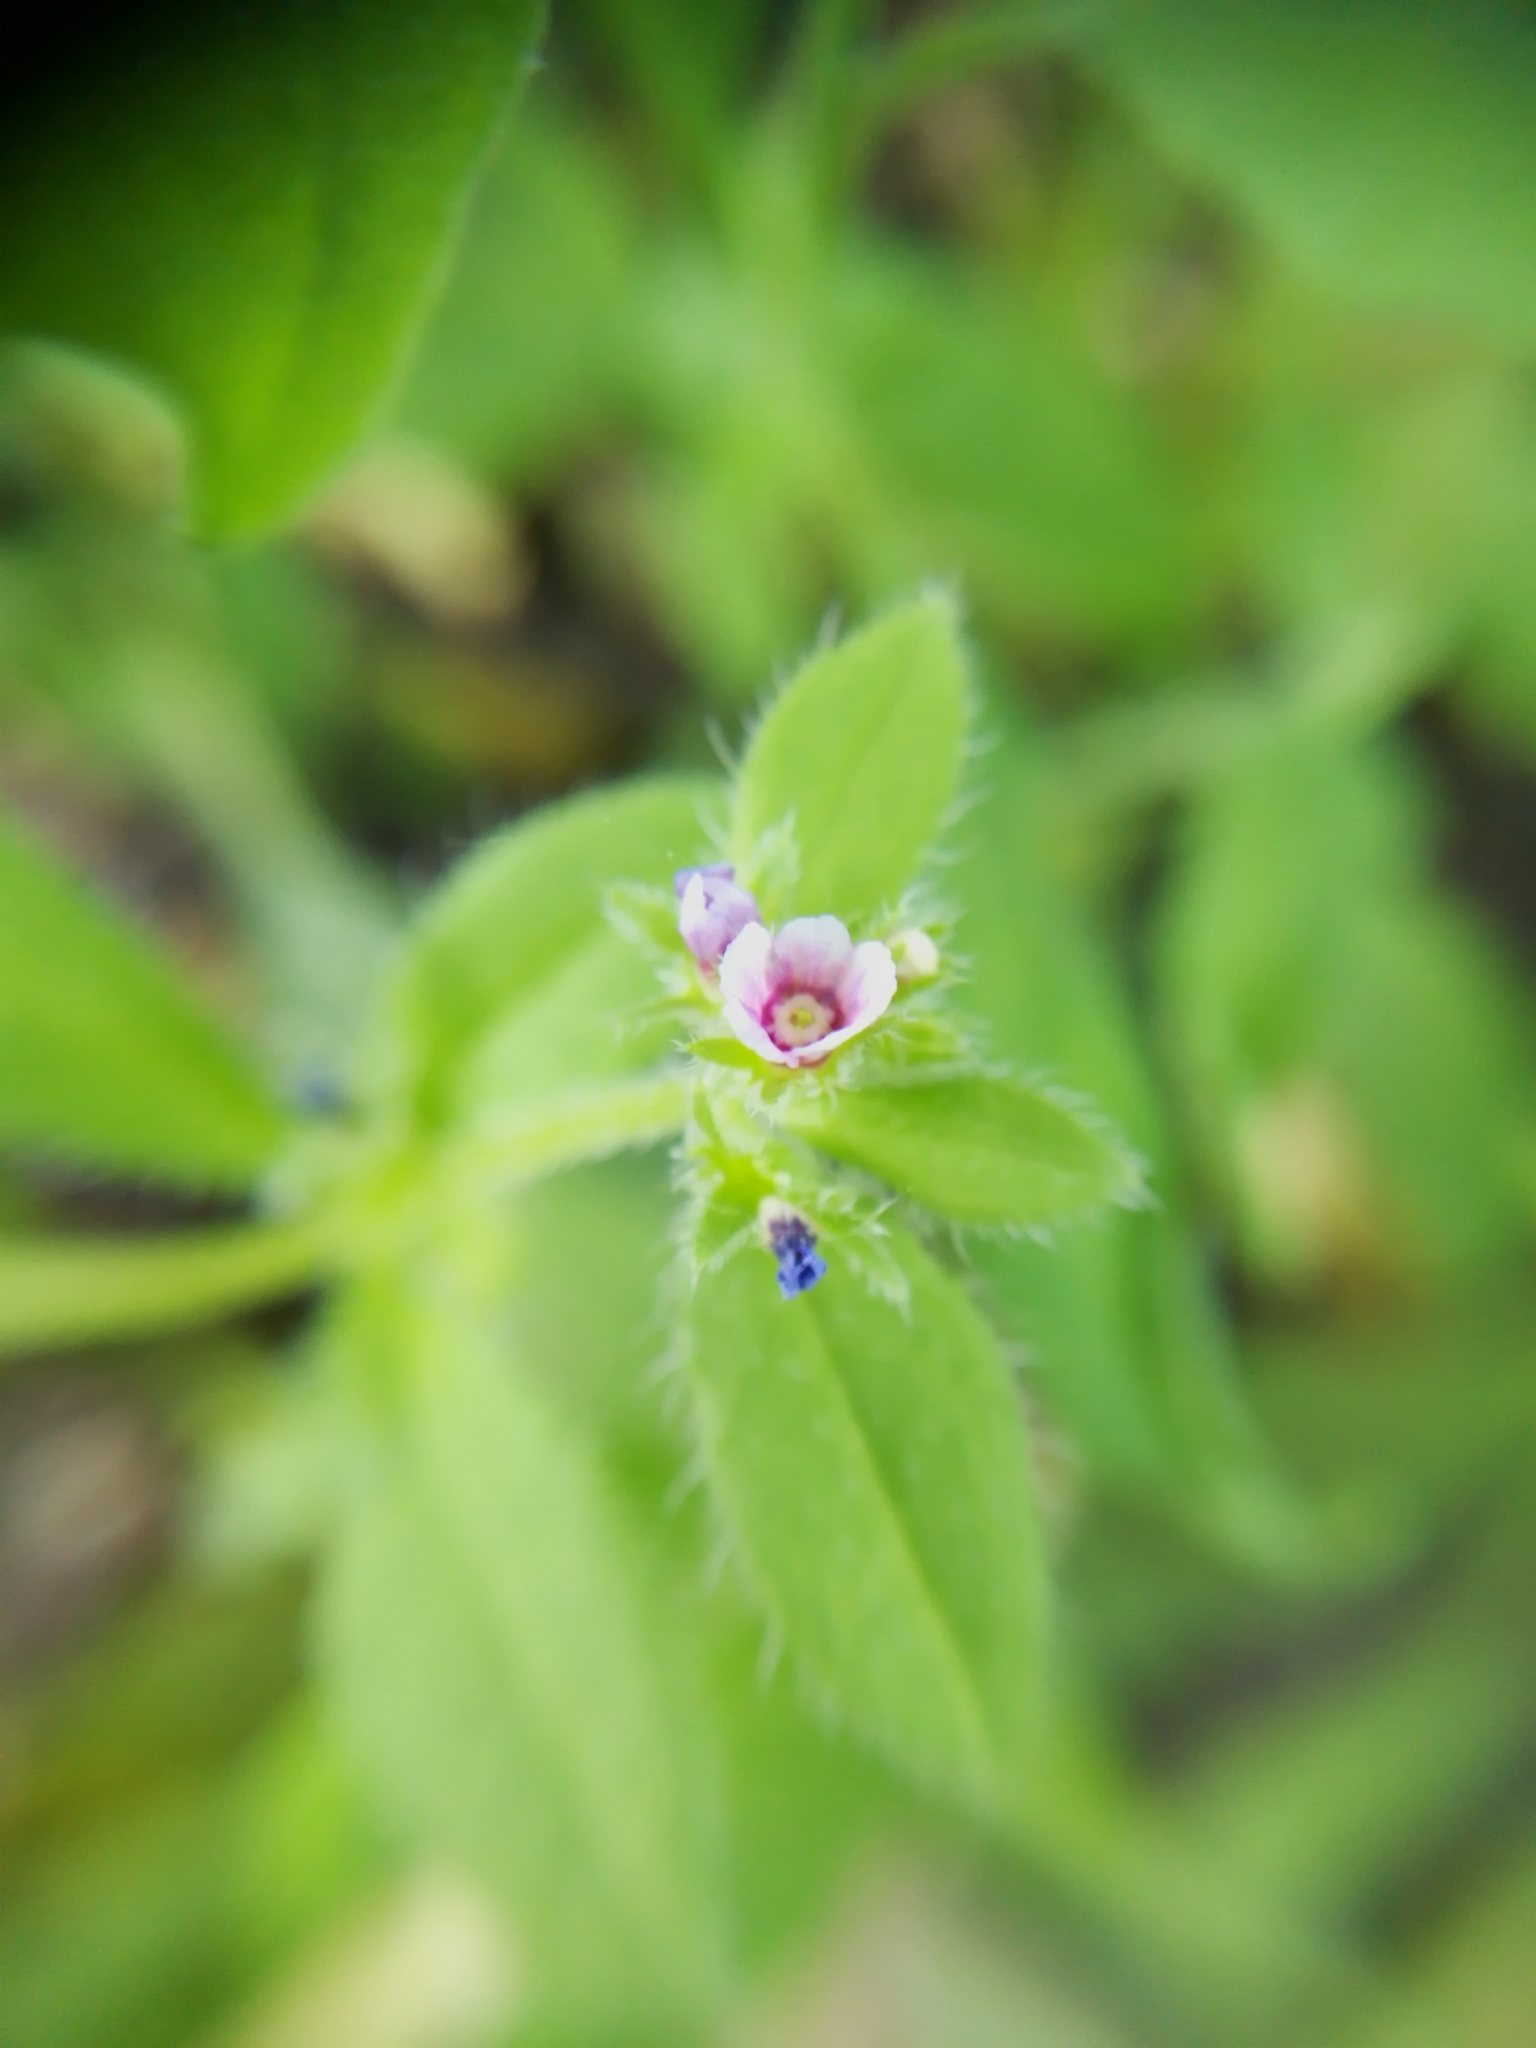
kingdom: Plantae
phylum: Tracheophyta
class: Magnoliopsida
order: Boraginales
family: Boraginaceae
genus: Asperugo
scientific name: Asperugo procumbens
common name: Madwort
